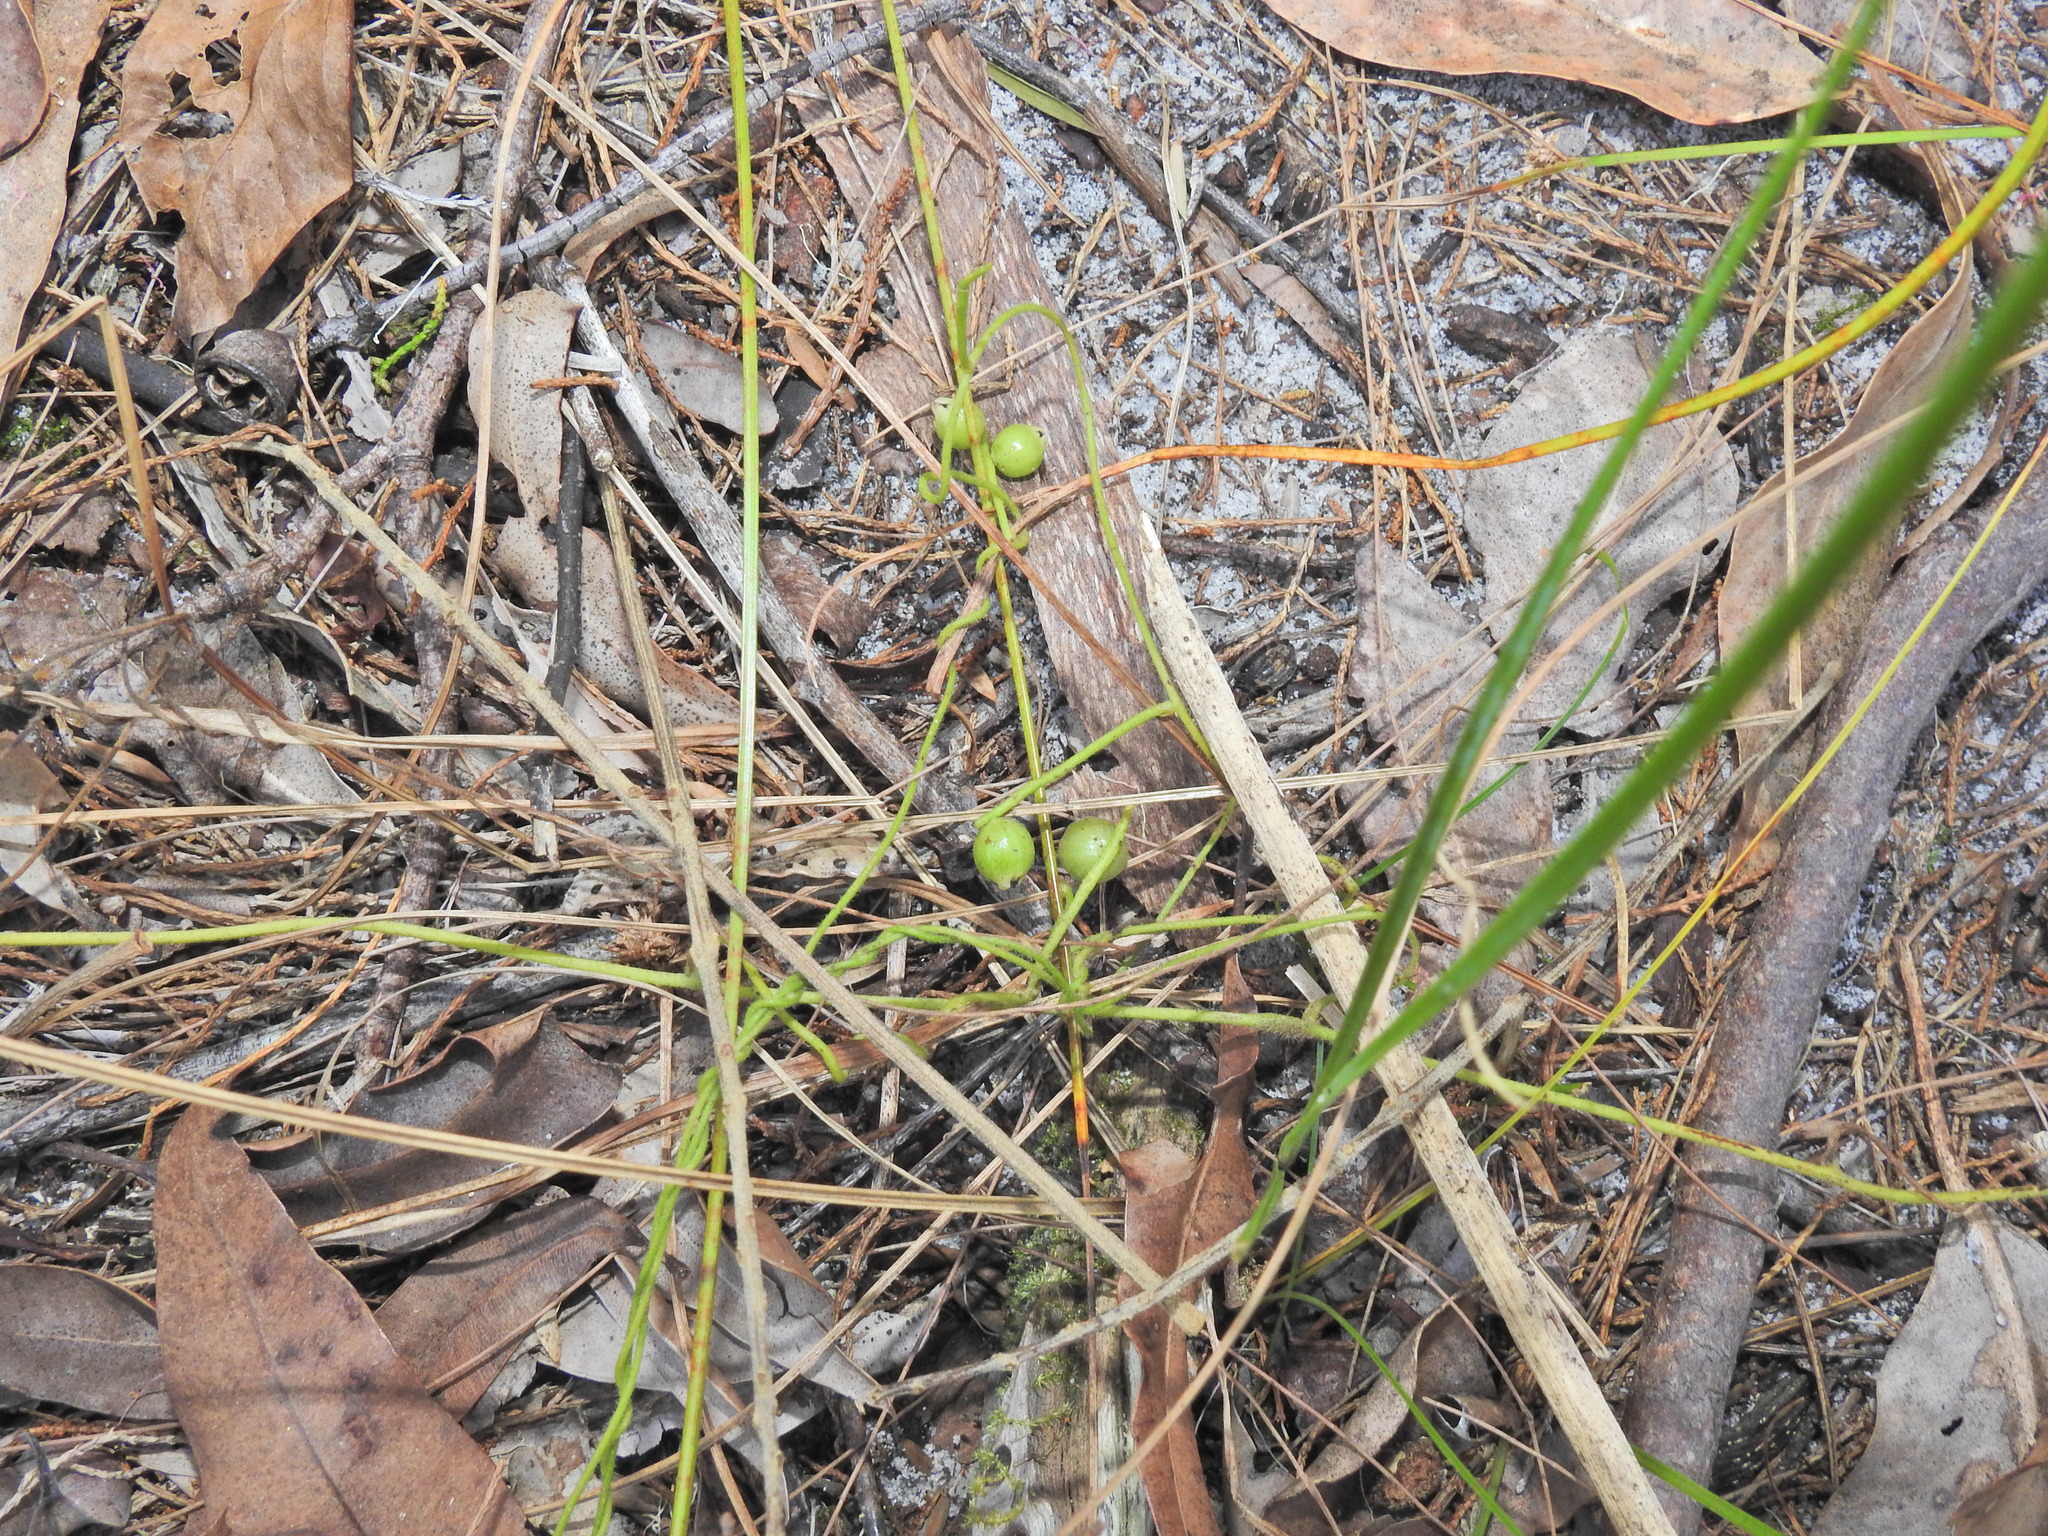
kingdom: Plantae
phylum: Tracheophyta
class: Magnoliopsida
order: Laurales
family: Lauraceae
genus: Cassytha
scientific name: Cassytha filiformis
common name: Dodder-laurel
